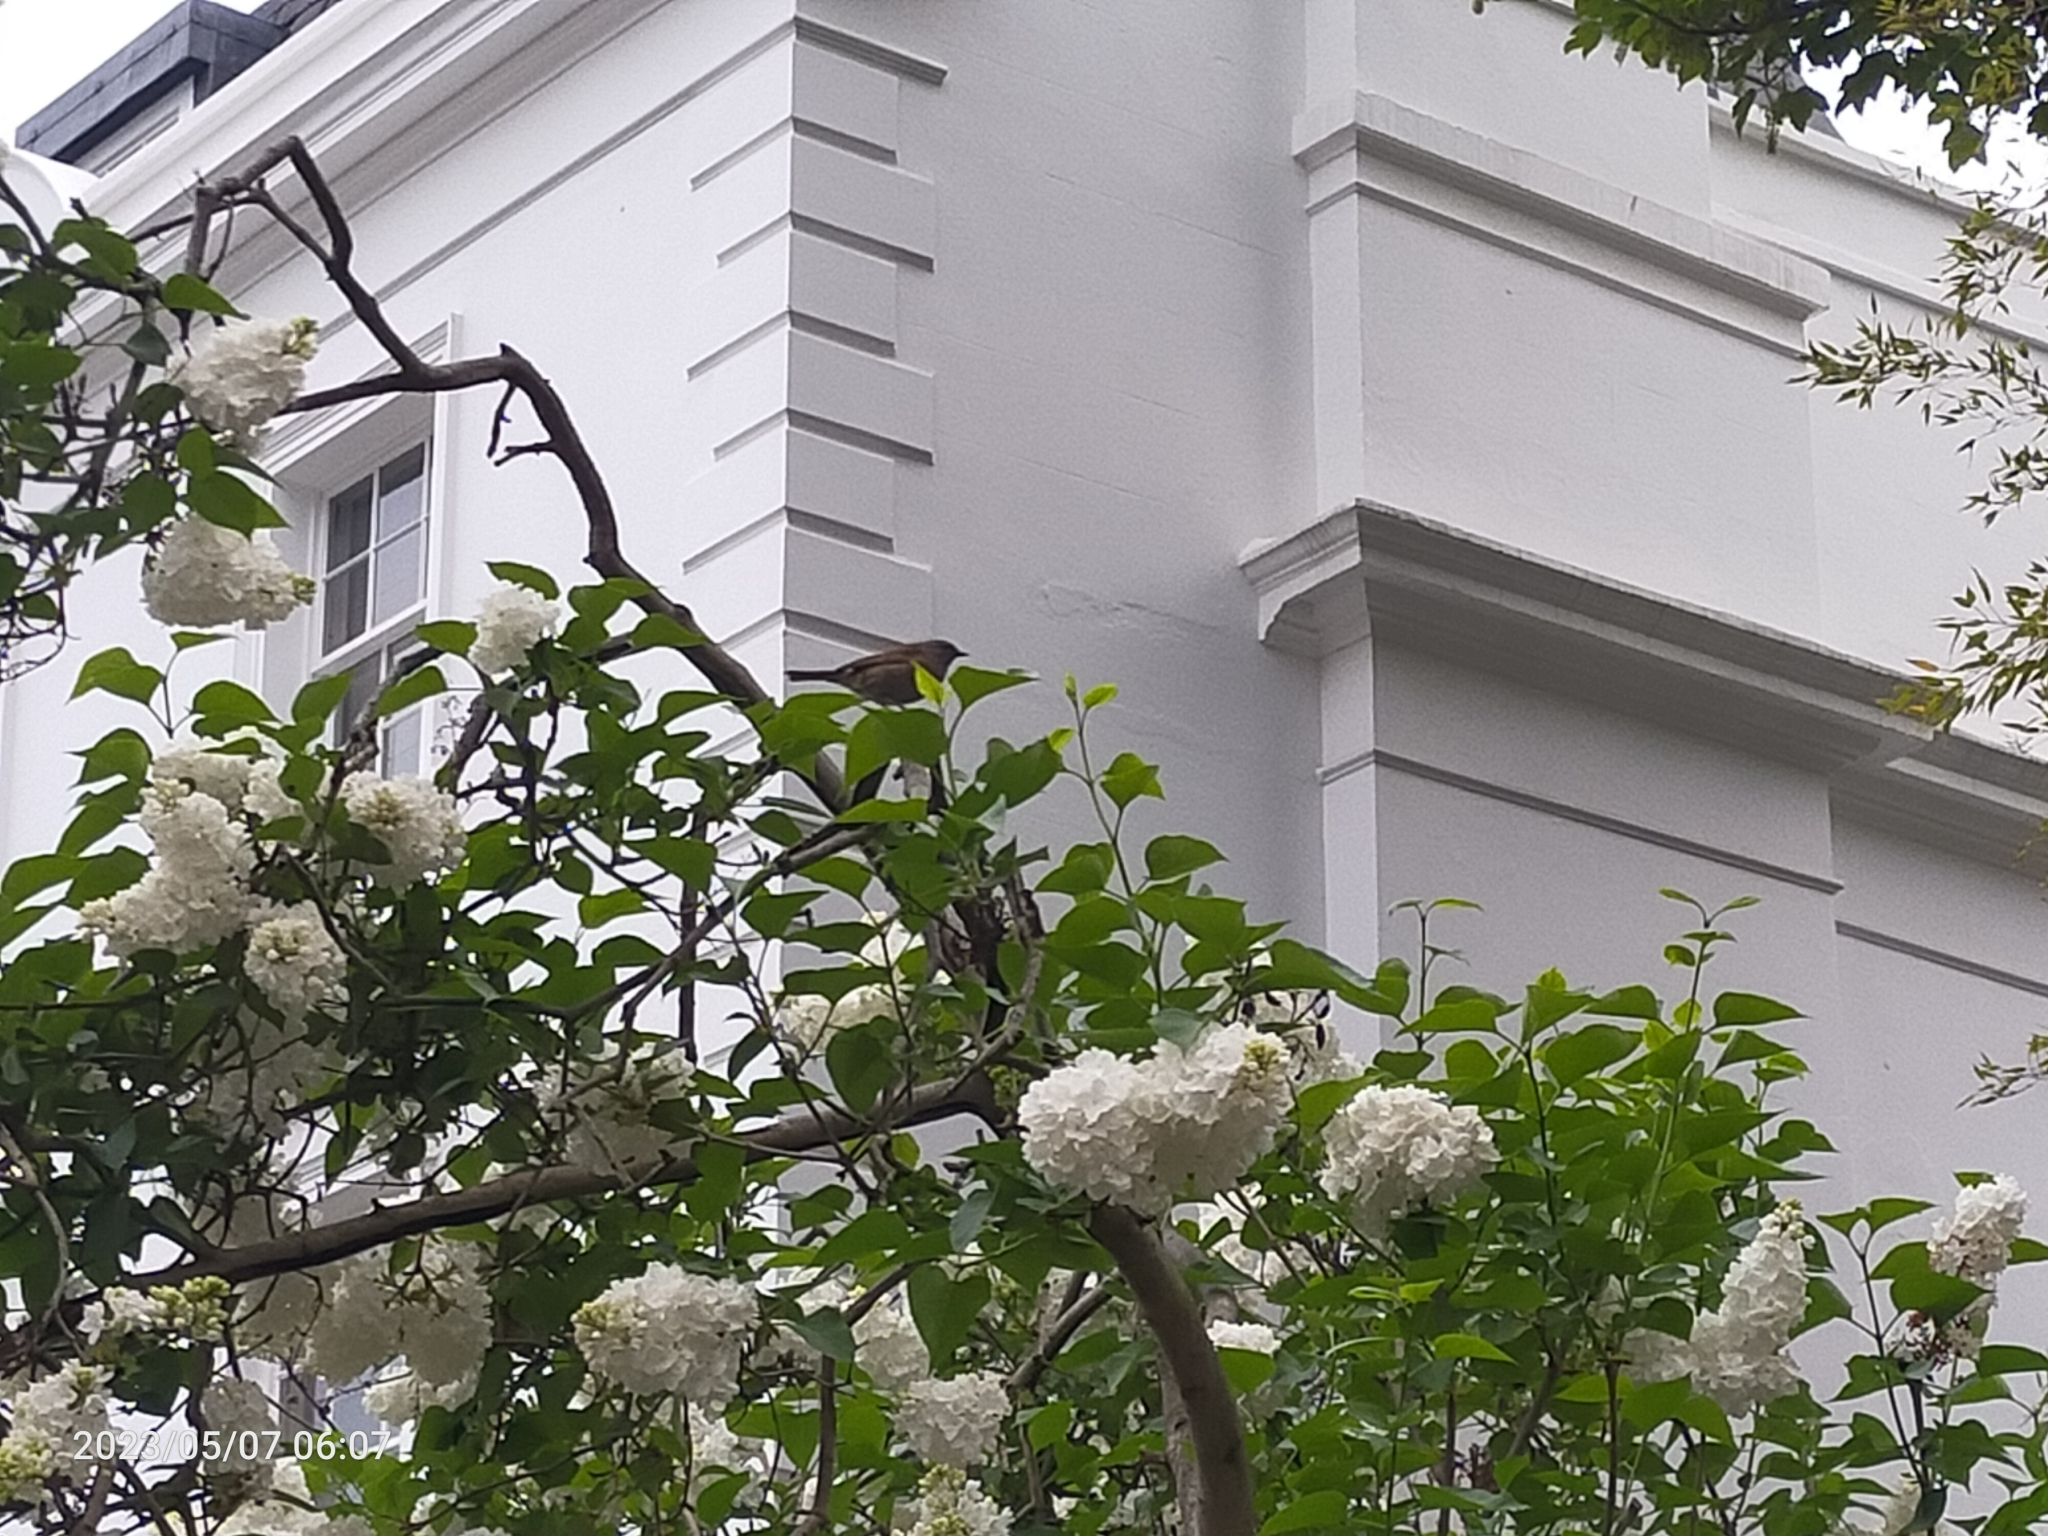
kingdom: Animalia
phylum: Chordata
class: Aves
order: Passeriformes
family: Prunellidae
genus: Prunella
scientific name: Prunella modularis
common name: Dunnock
